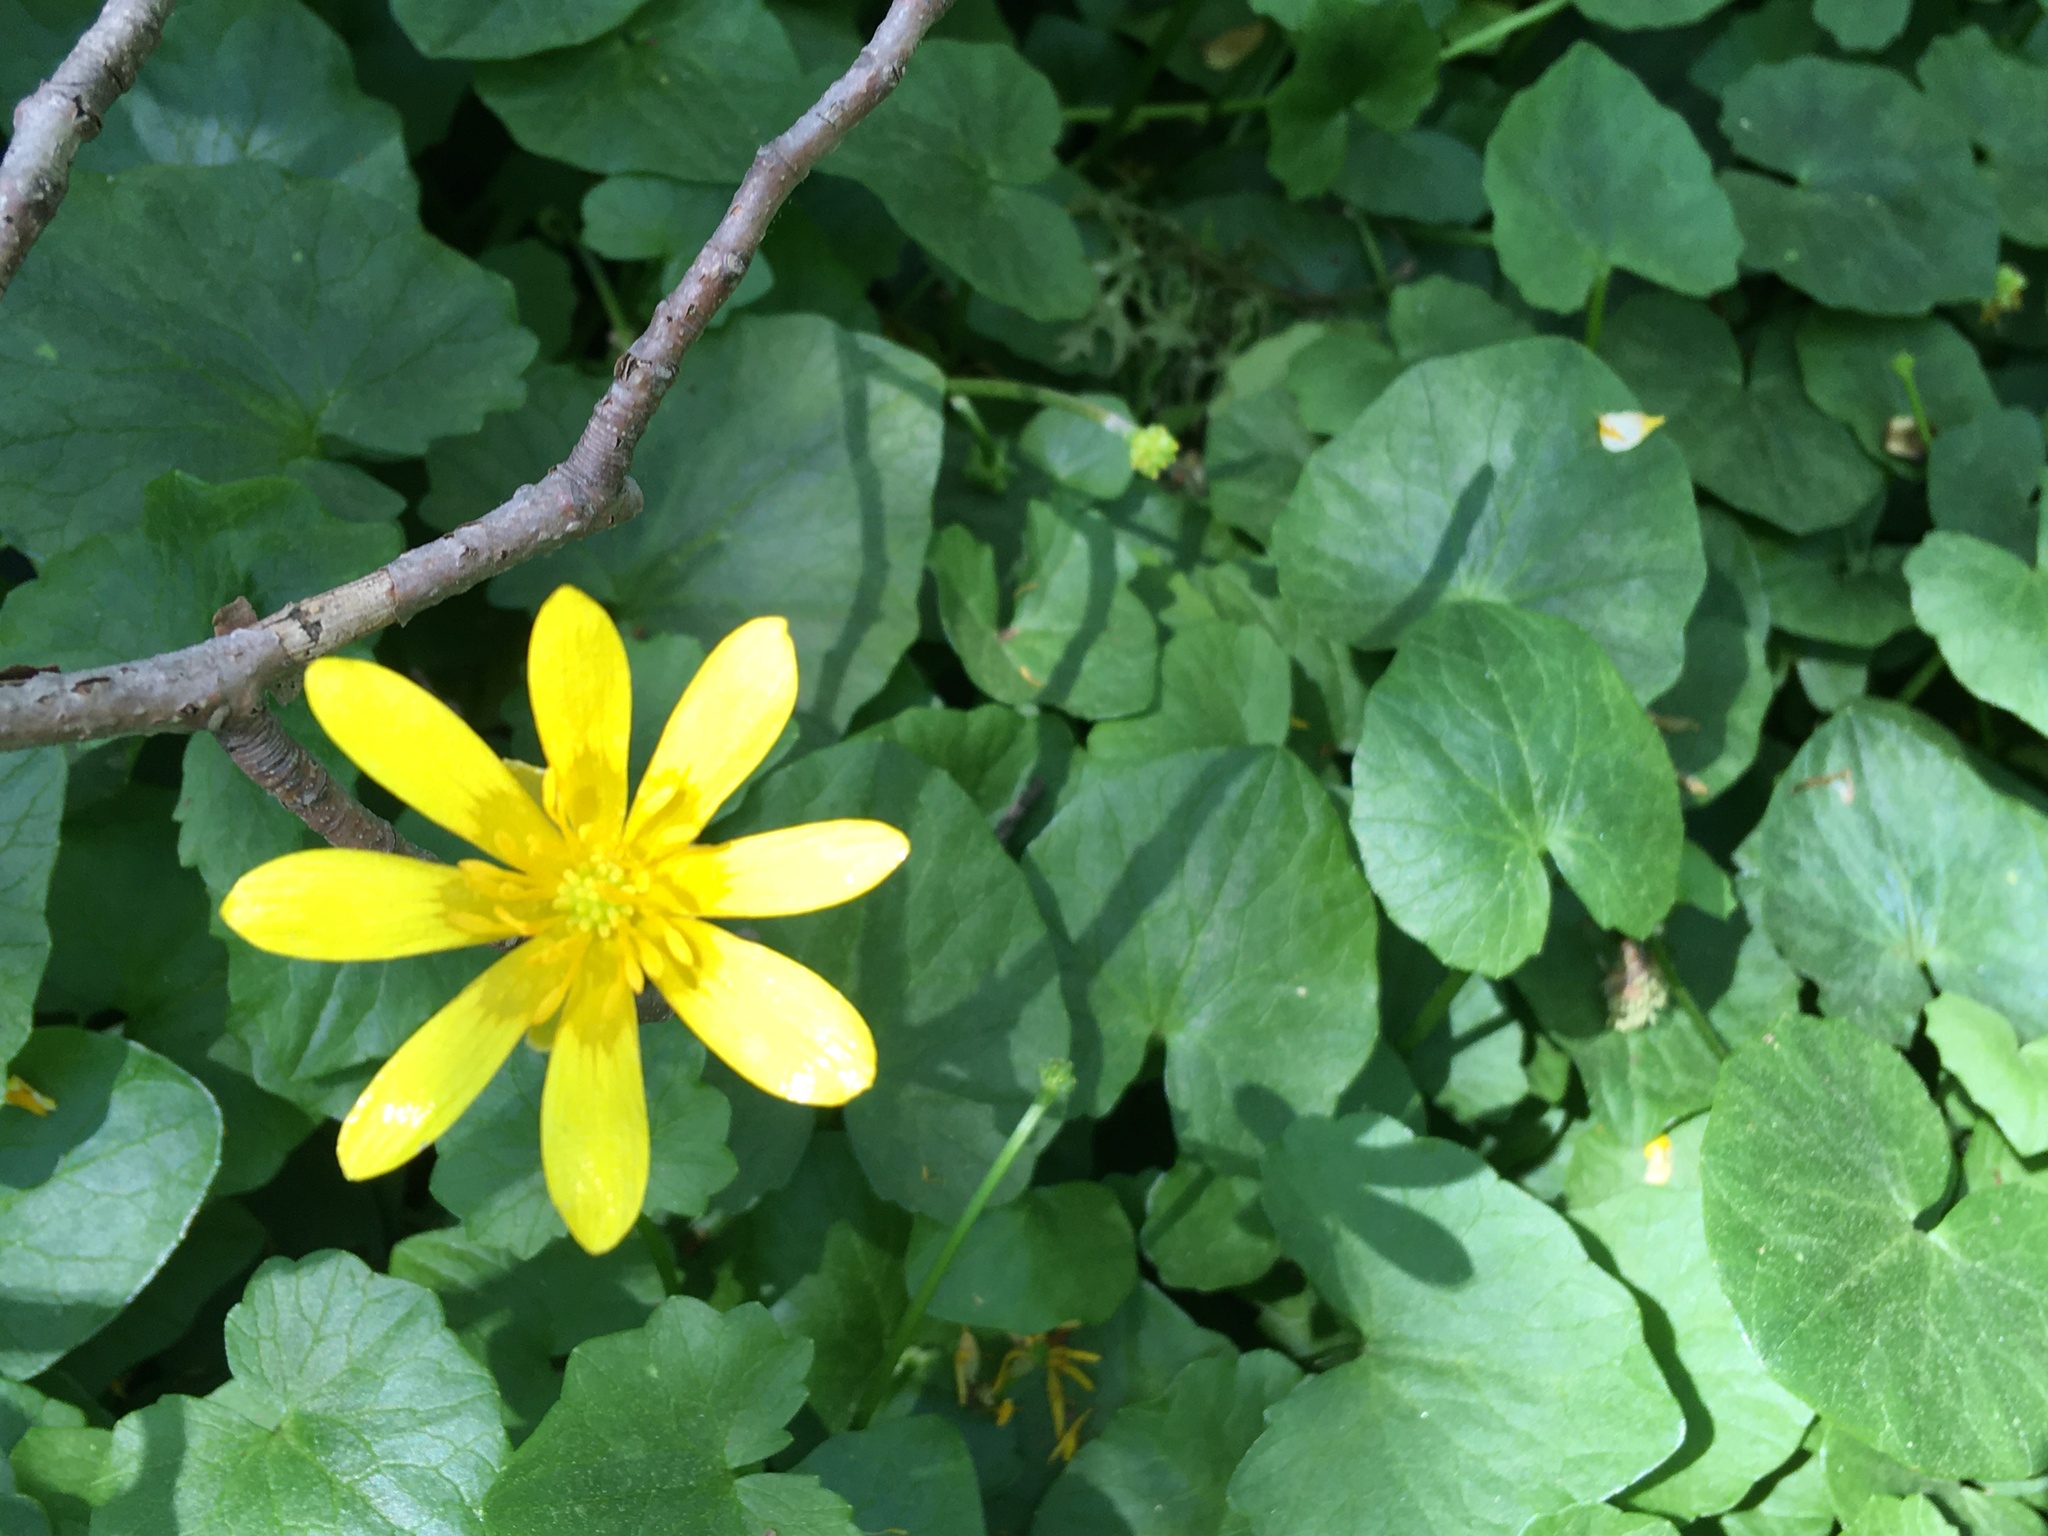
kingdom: Plantae
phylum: Tracheophyta
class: Magnoliopsida
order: Ranunculales
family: Ranunculaceae
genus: Ficaria
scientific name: Ficaria verna
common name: Lesser celandine
